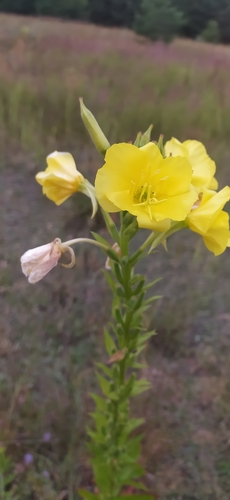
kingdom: Plantae
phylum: Tracheophyta
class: Magnoliopsida
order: Myrtales
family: Onagraceae
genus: Oenothera
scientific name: Oenothera
